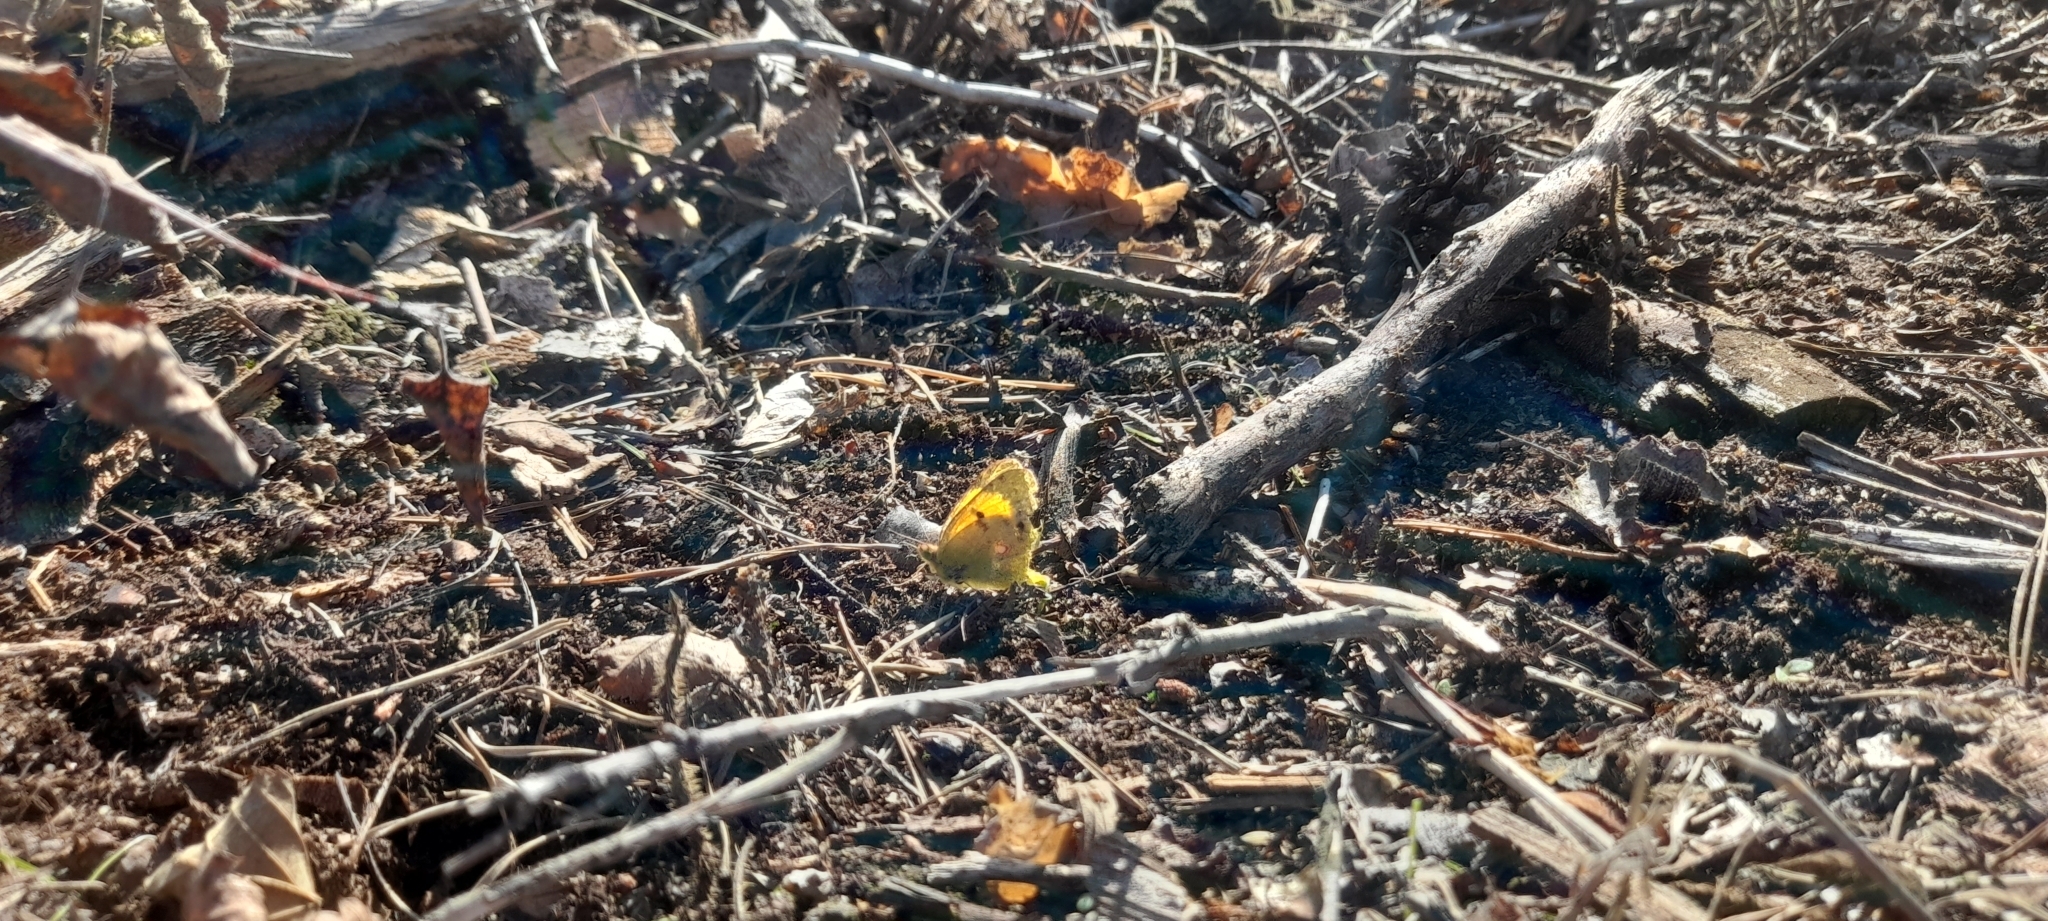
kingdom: Animalia
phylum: Arthropoda
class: Insecta
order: Lepidoptera
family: Pieridae
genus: Colias
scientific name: Colias croceus
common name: Clouded yellow
